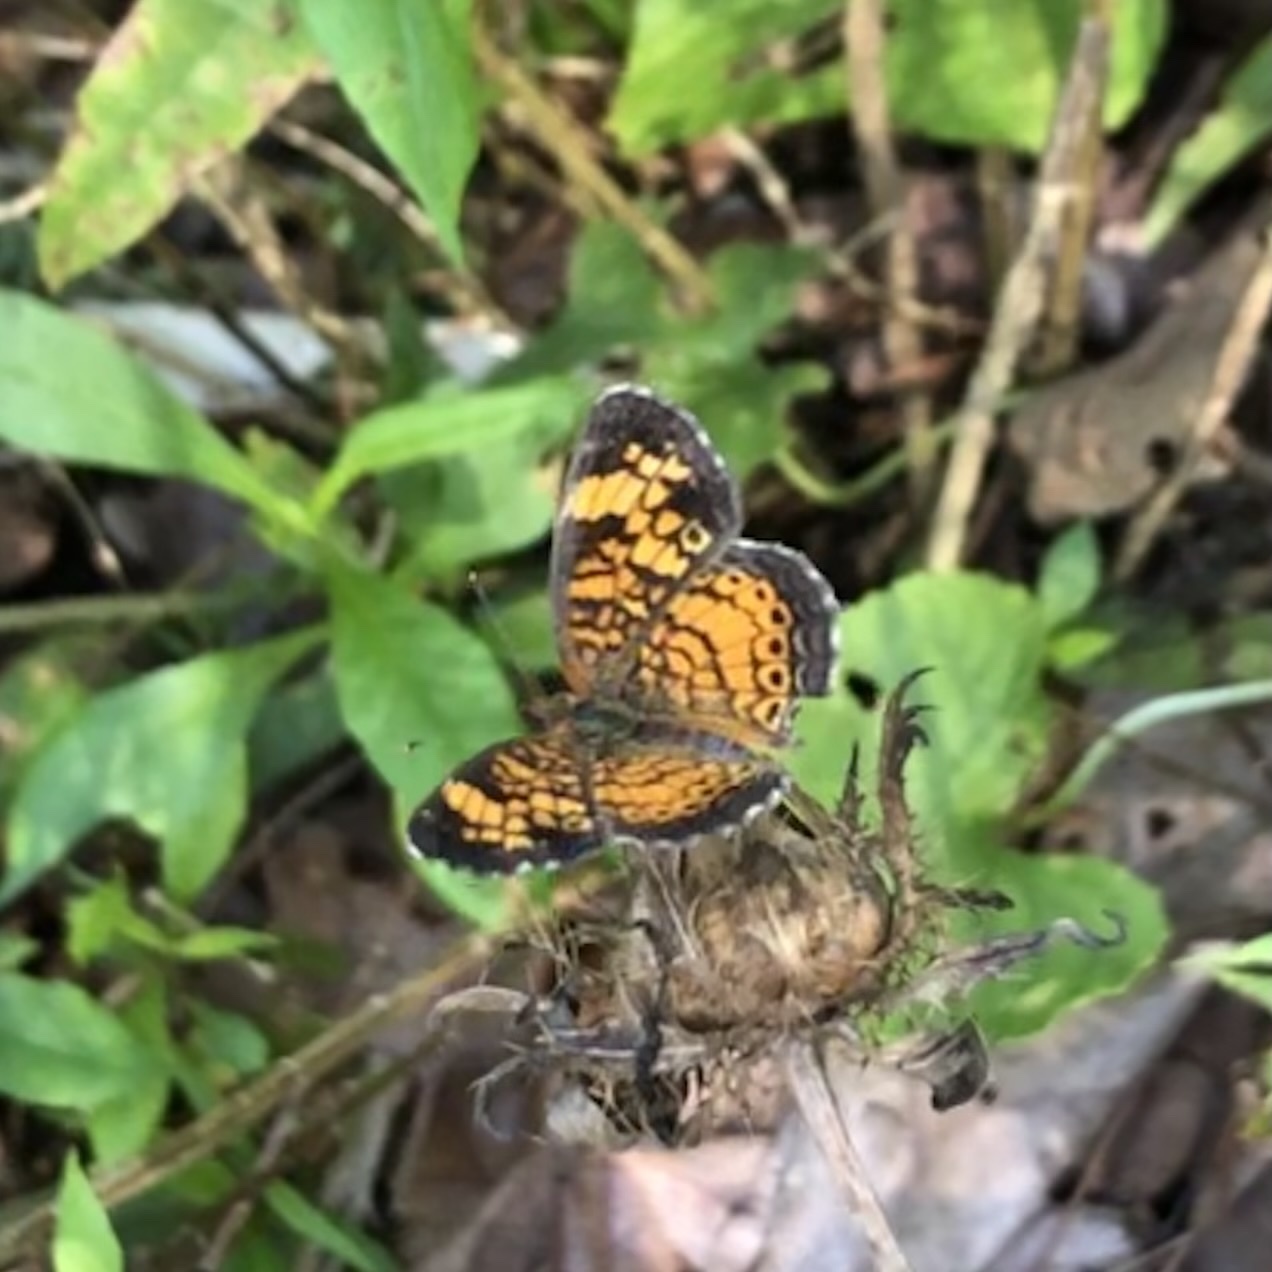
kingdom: Animalia
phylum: Arthropoda
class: Insecta
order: Lepidoptera
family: Nymphalidae
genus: Phyciodes
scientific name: Phyciodes tharos
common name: Pearl crescent
